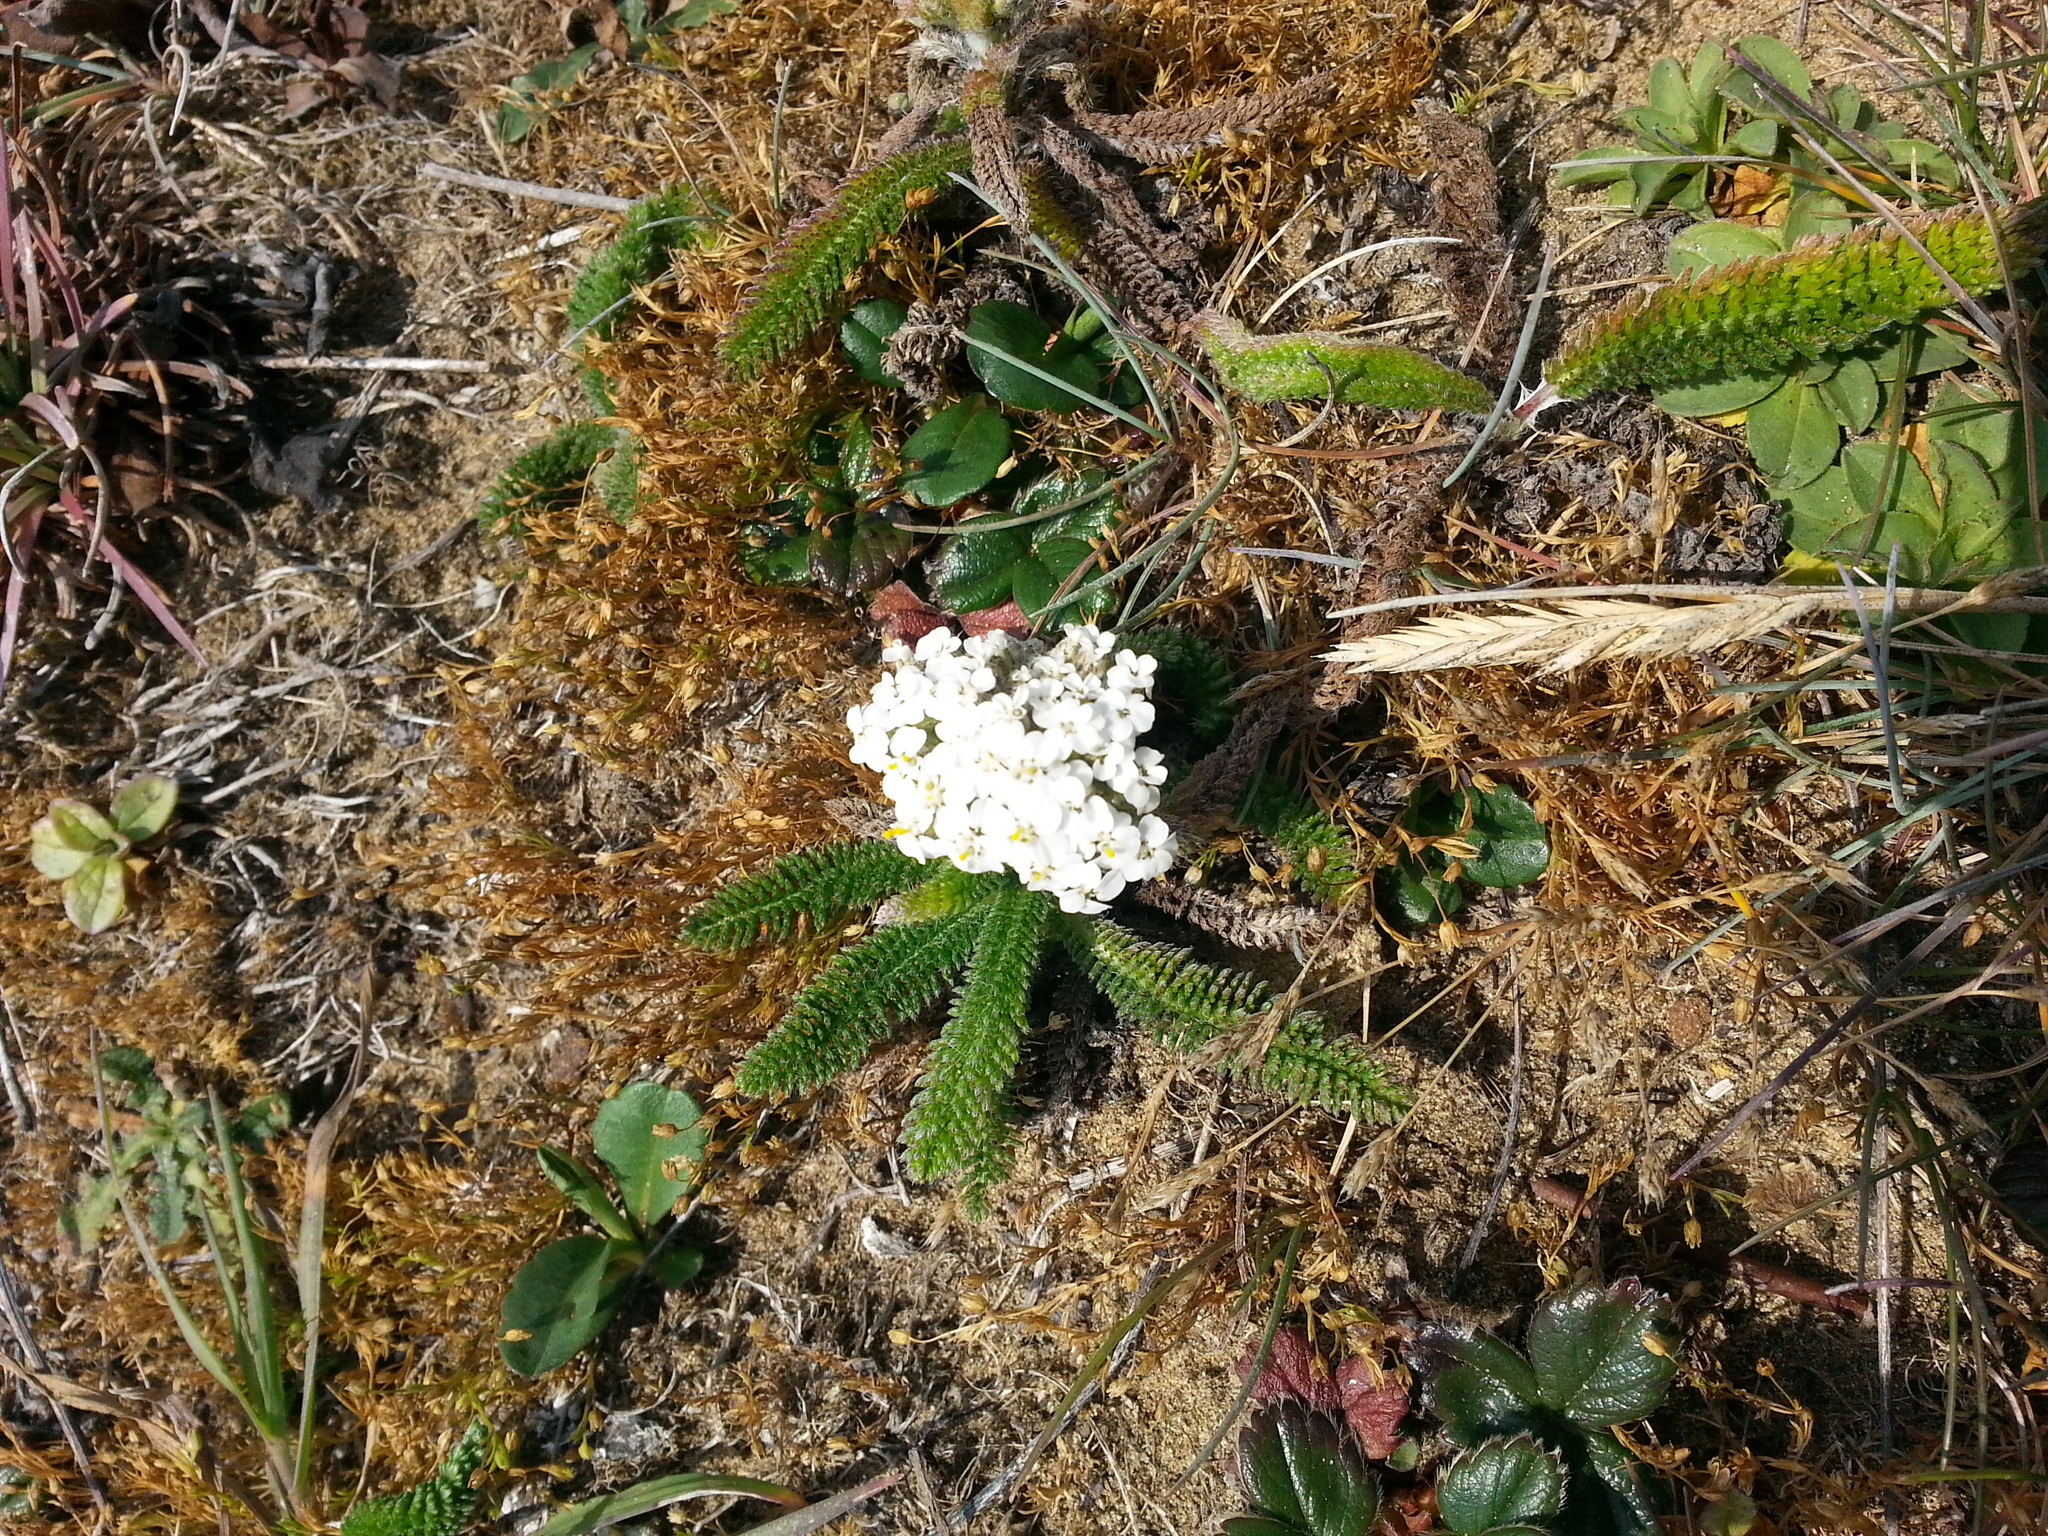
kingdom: Plantae
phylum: Tracheophyta
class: Magnoliopsida
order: Asterales
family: Asteraceae
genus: Achillea
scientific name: Achillea millefolium
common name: Yarrow
